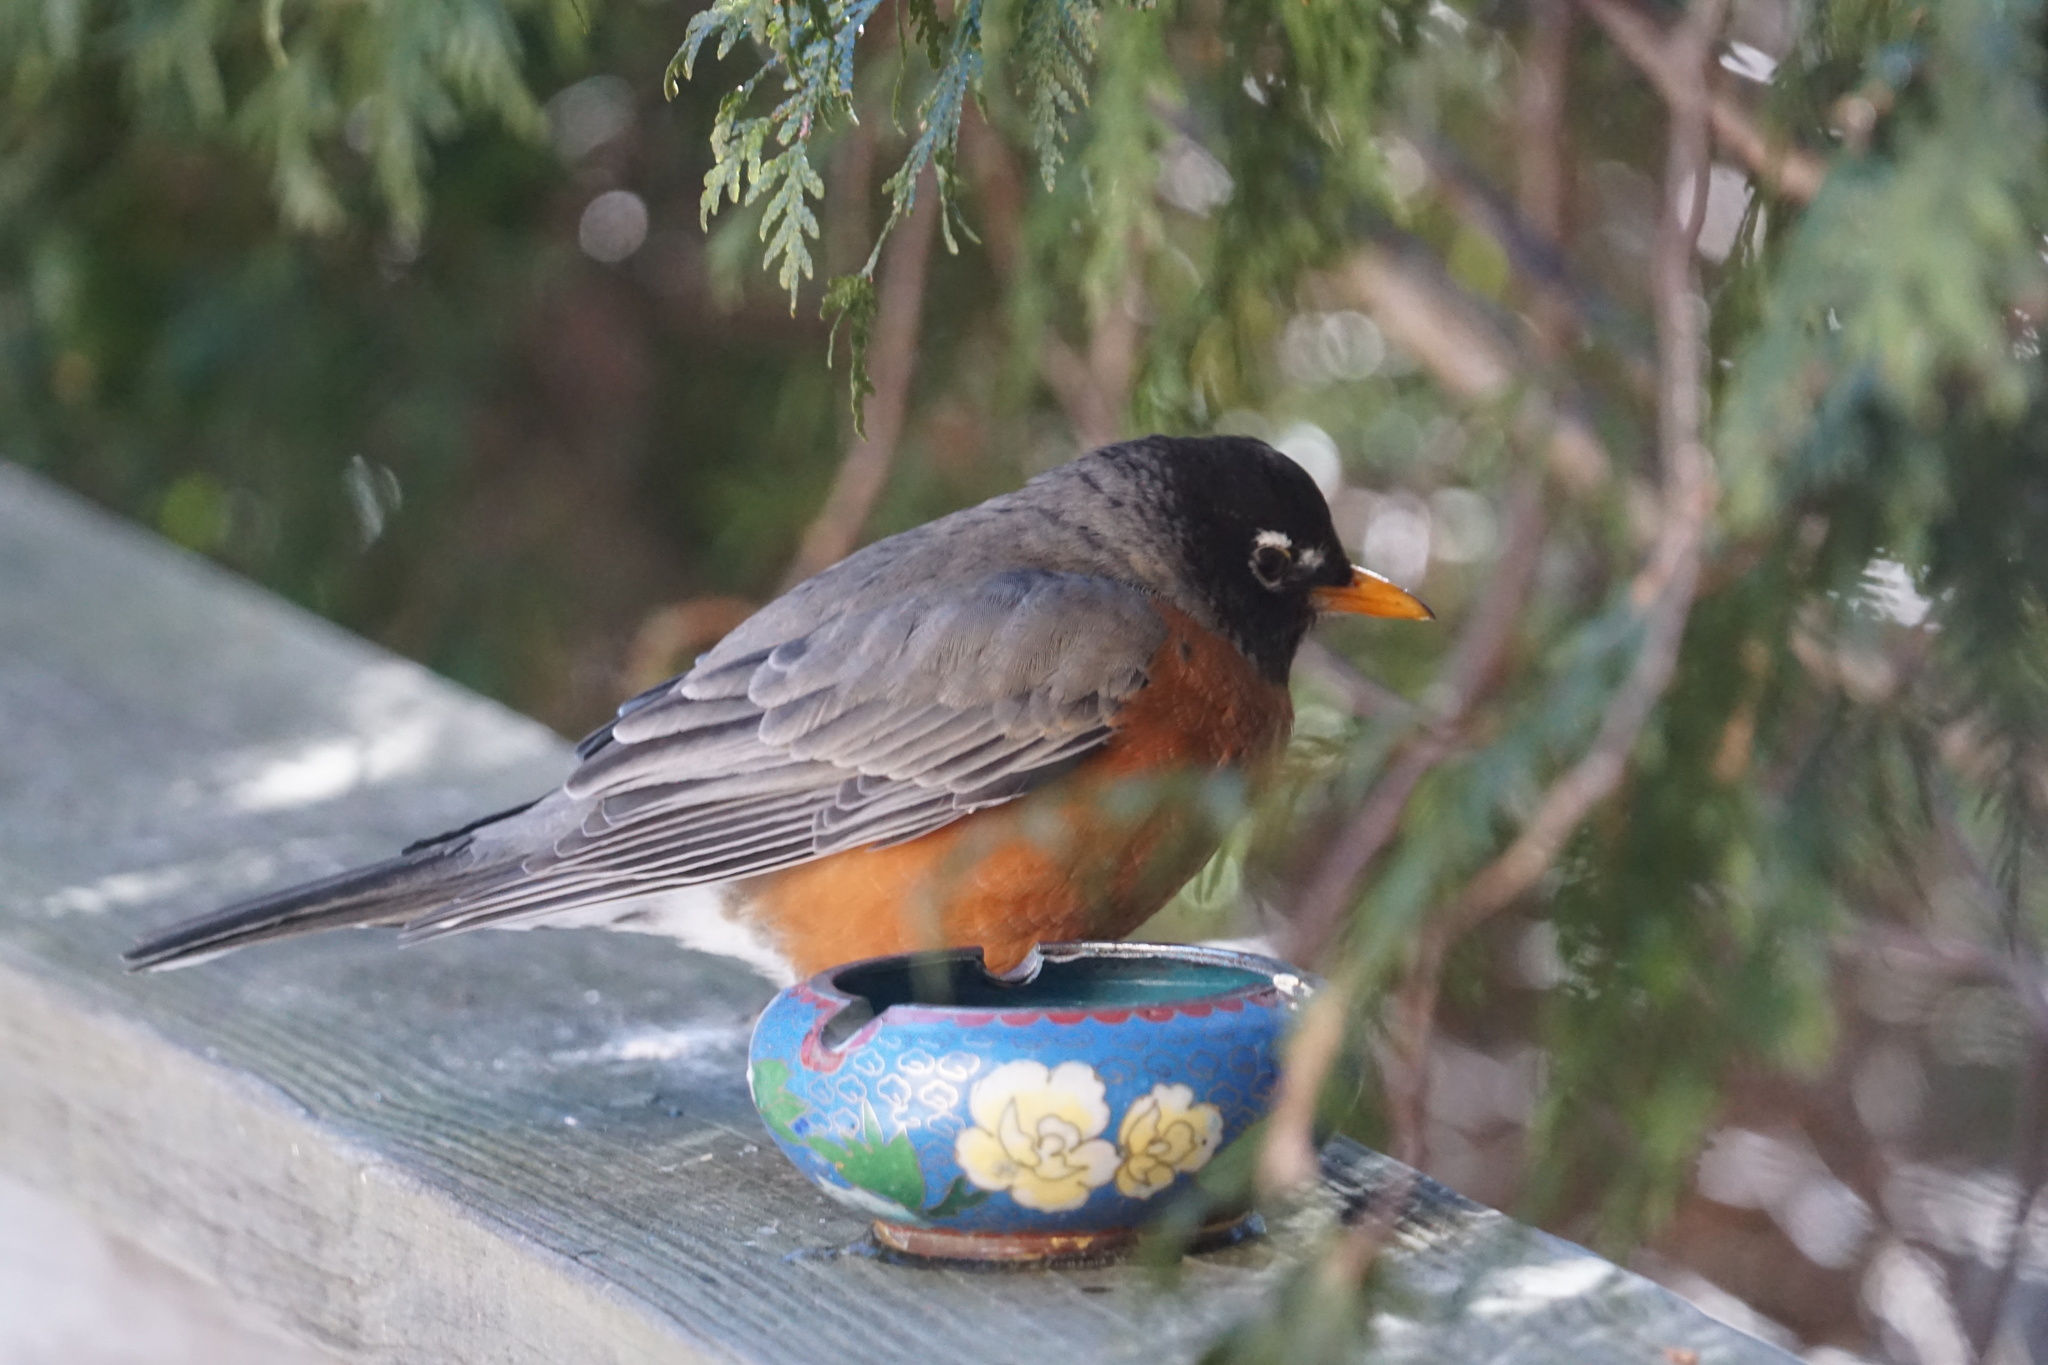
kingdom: Animalia
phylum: Chordata
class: Aves
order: Passeriformes
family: Turdidae
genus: Turdus
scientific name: Turdus migratorius
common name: American robin
